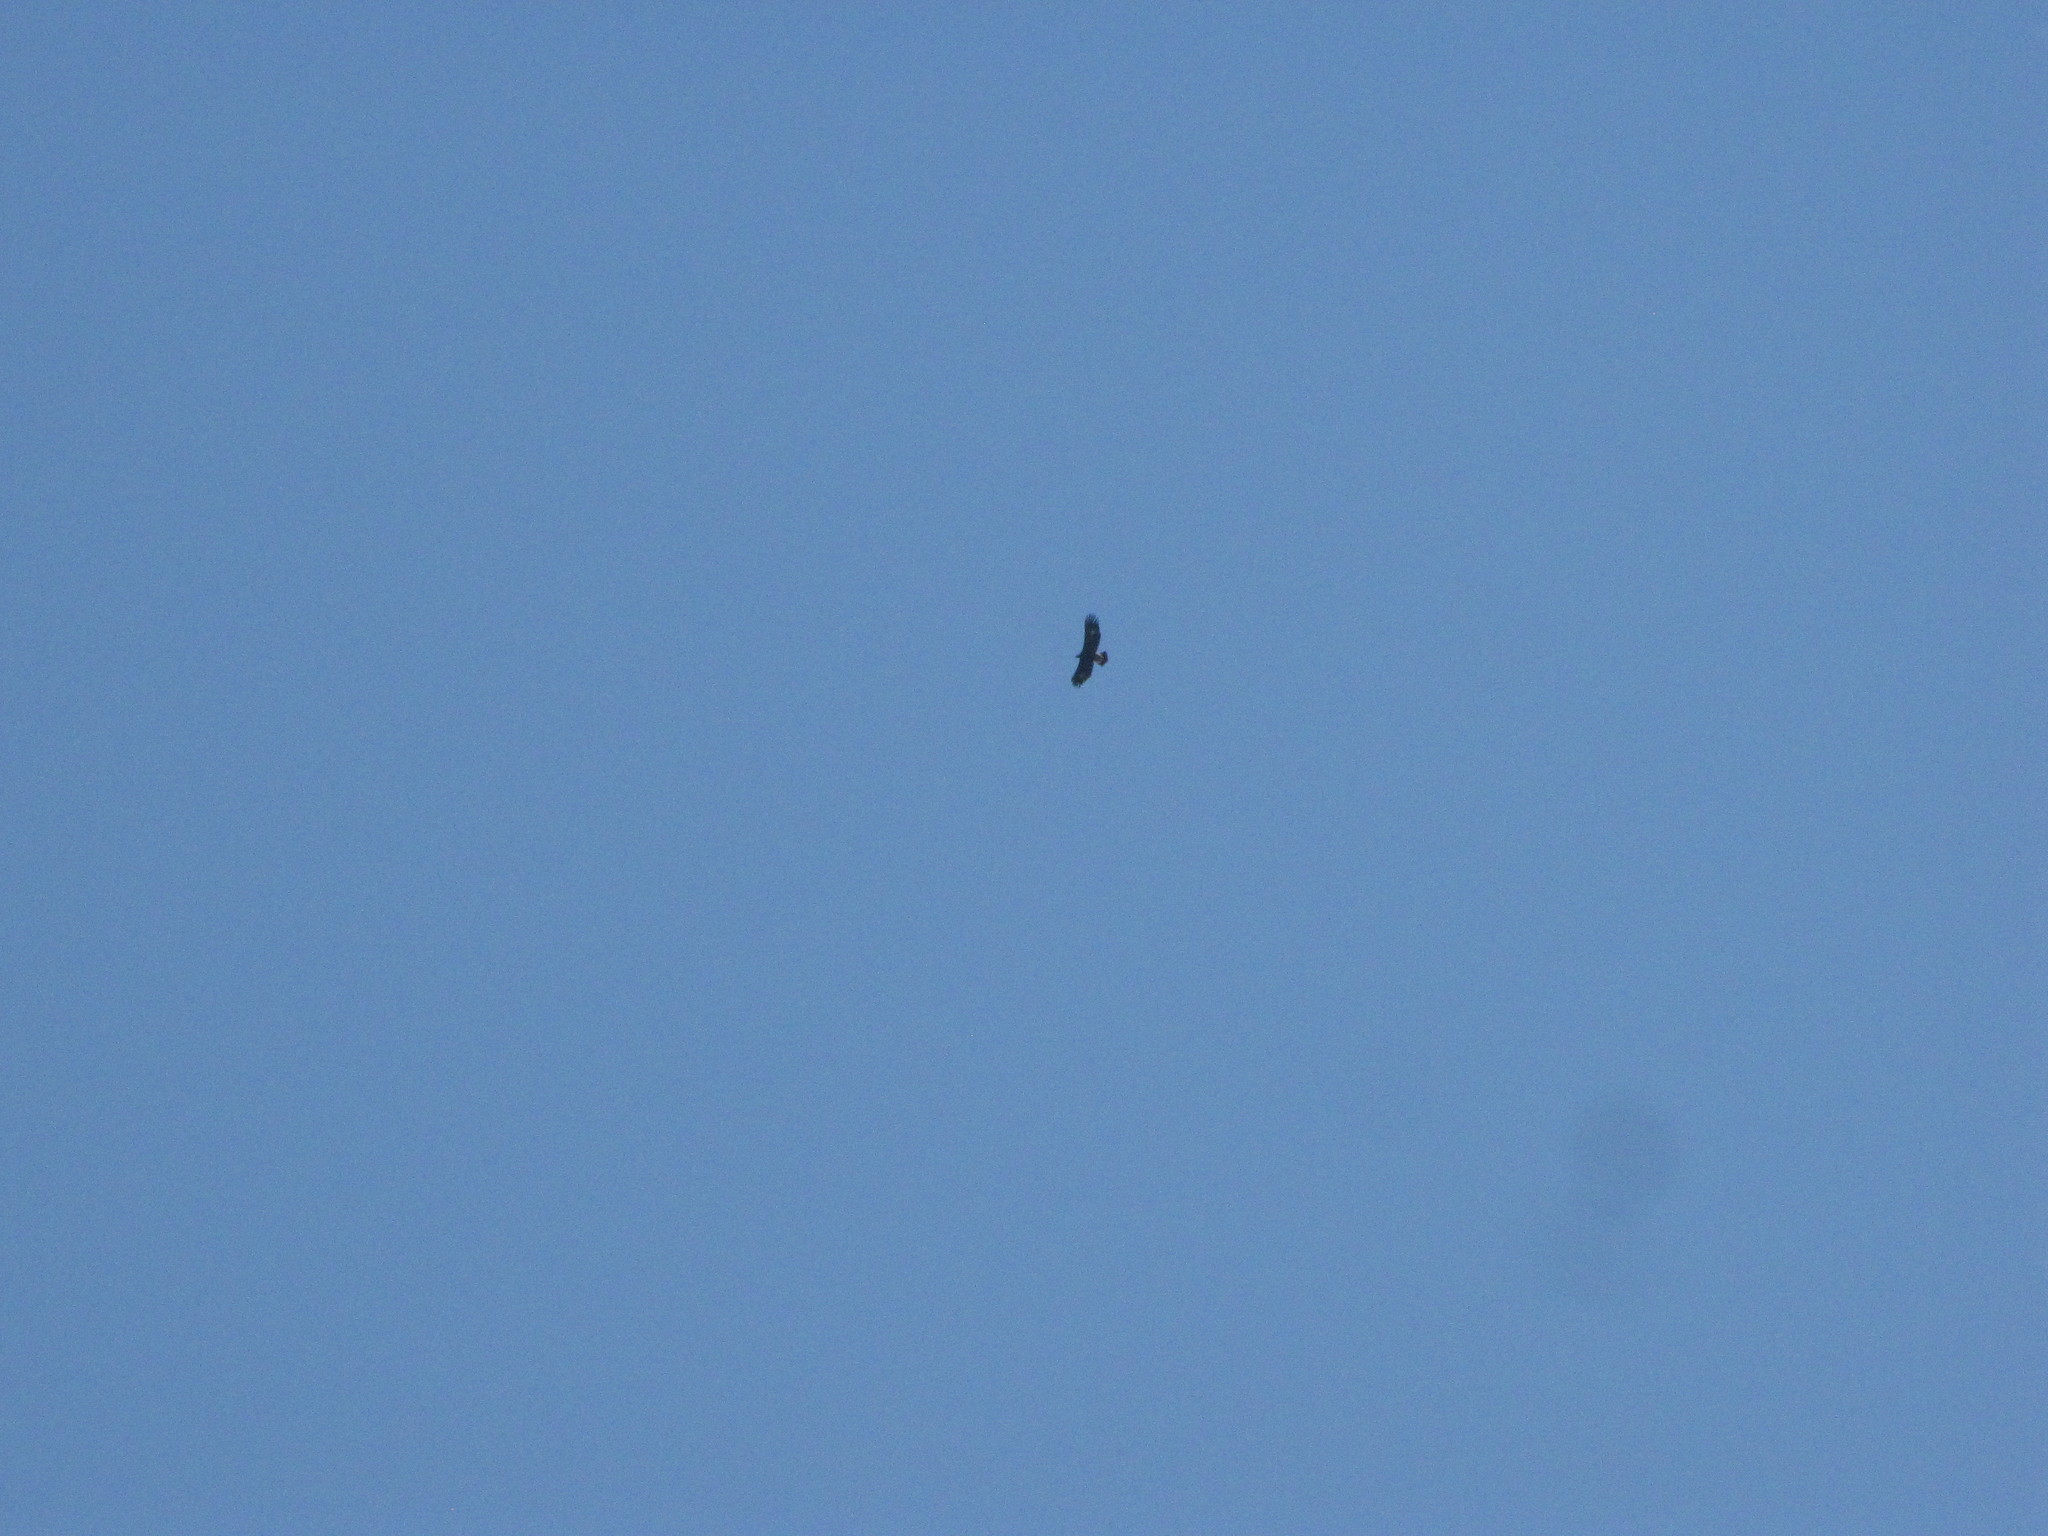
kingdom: Animalia
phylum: Chordata
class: Aves
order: Accipitriformes
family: Accipitridae
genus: Aquila
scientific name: Aquila chrysaetos
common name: Golden eagle
